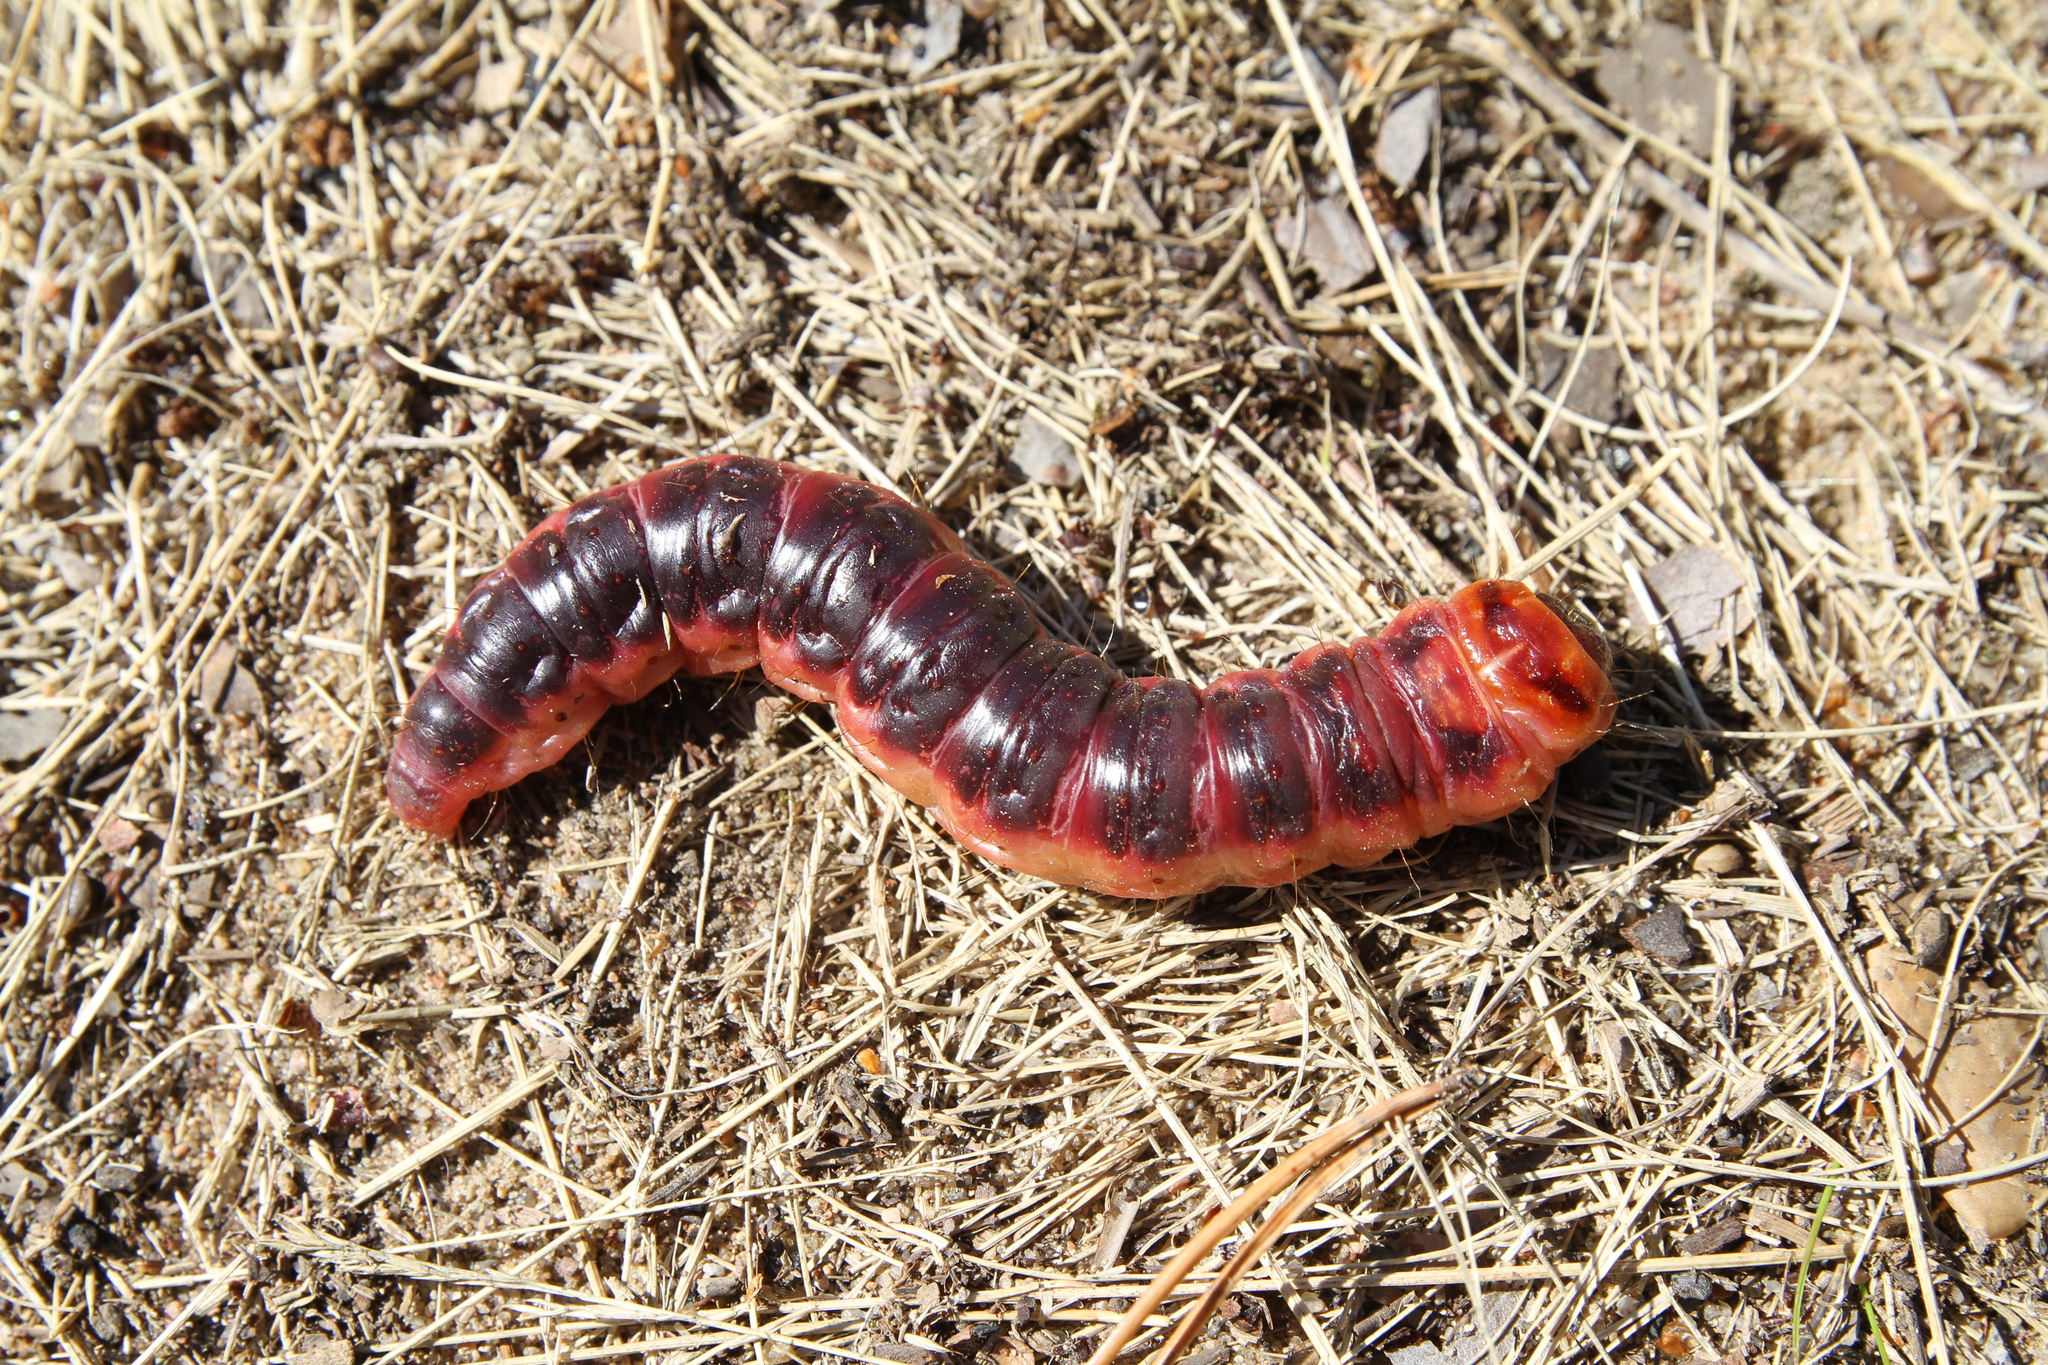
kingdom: Animalia
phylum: Arthropoda
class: Insecta
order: Lepidoptera
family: Cossidae
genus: Cossus
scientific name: Cossus cossus
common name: Goat moth
